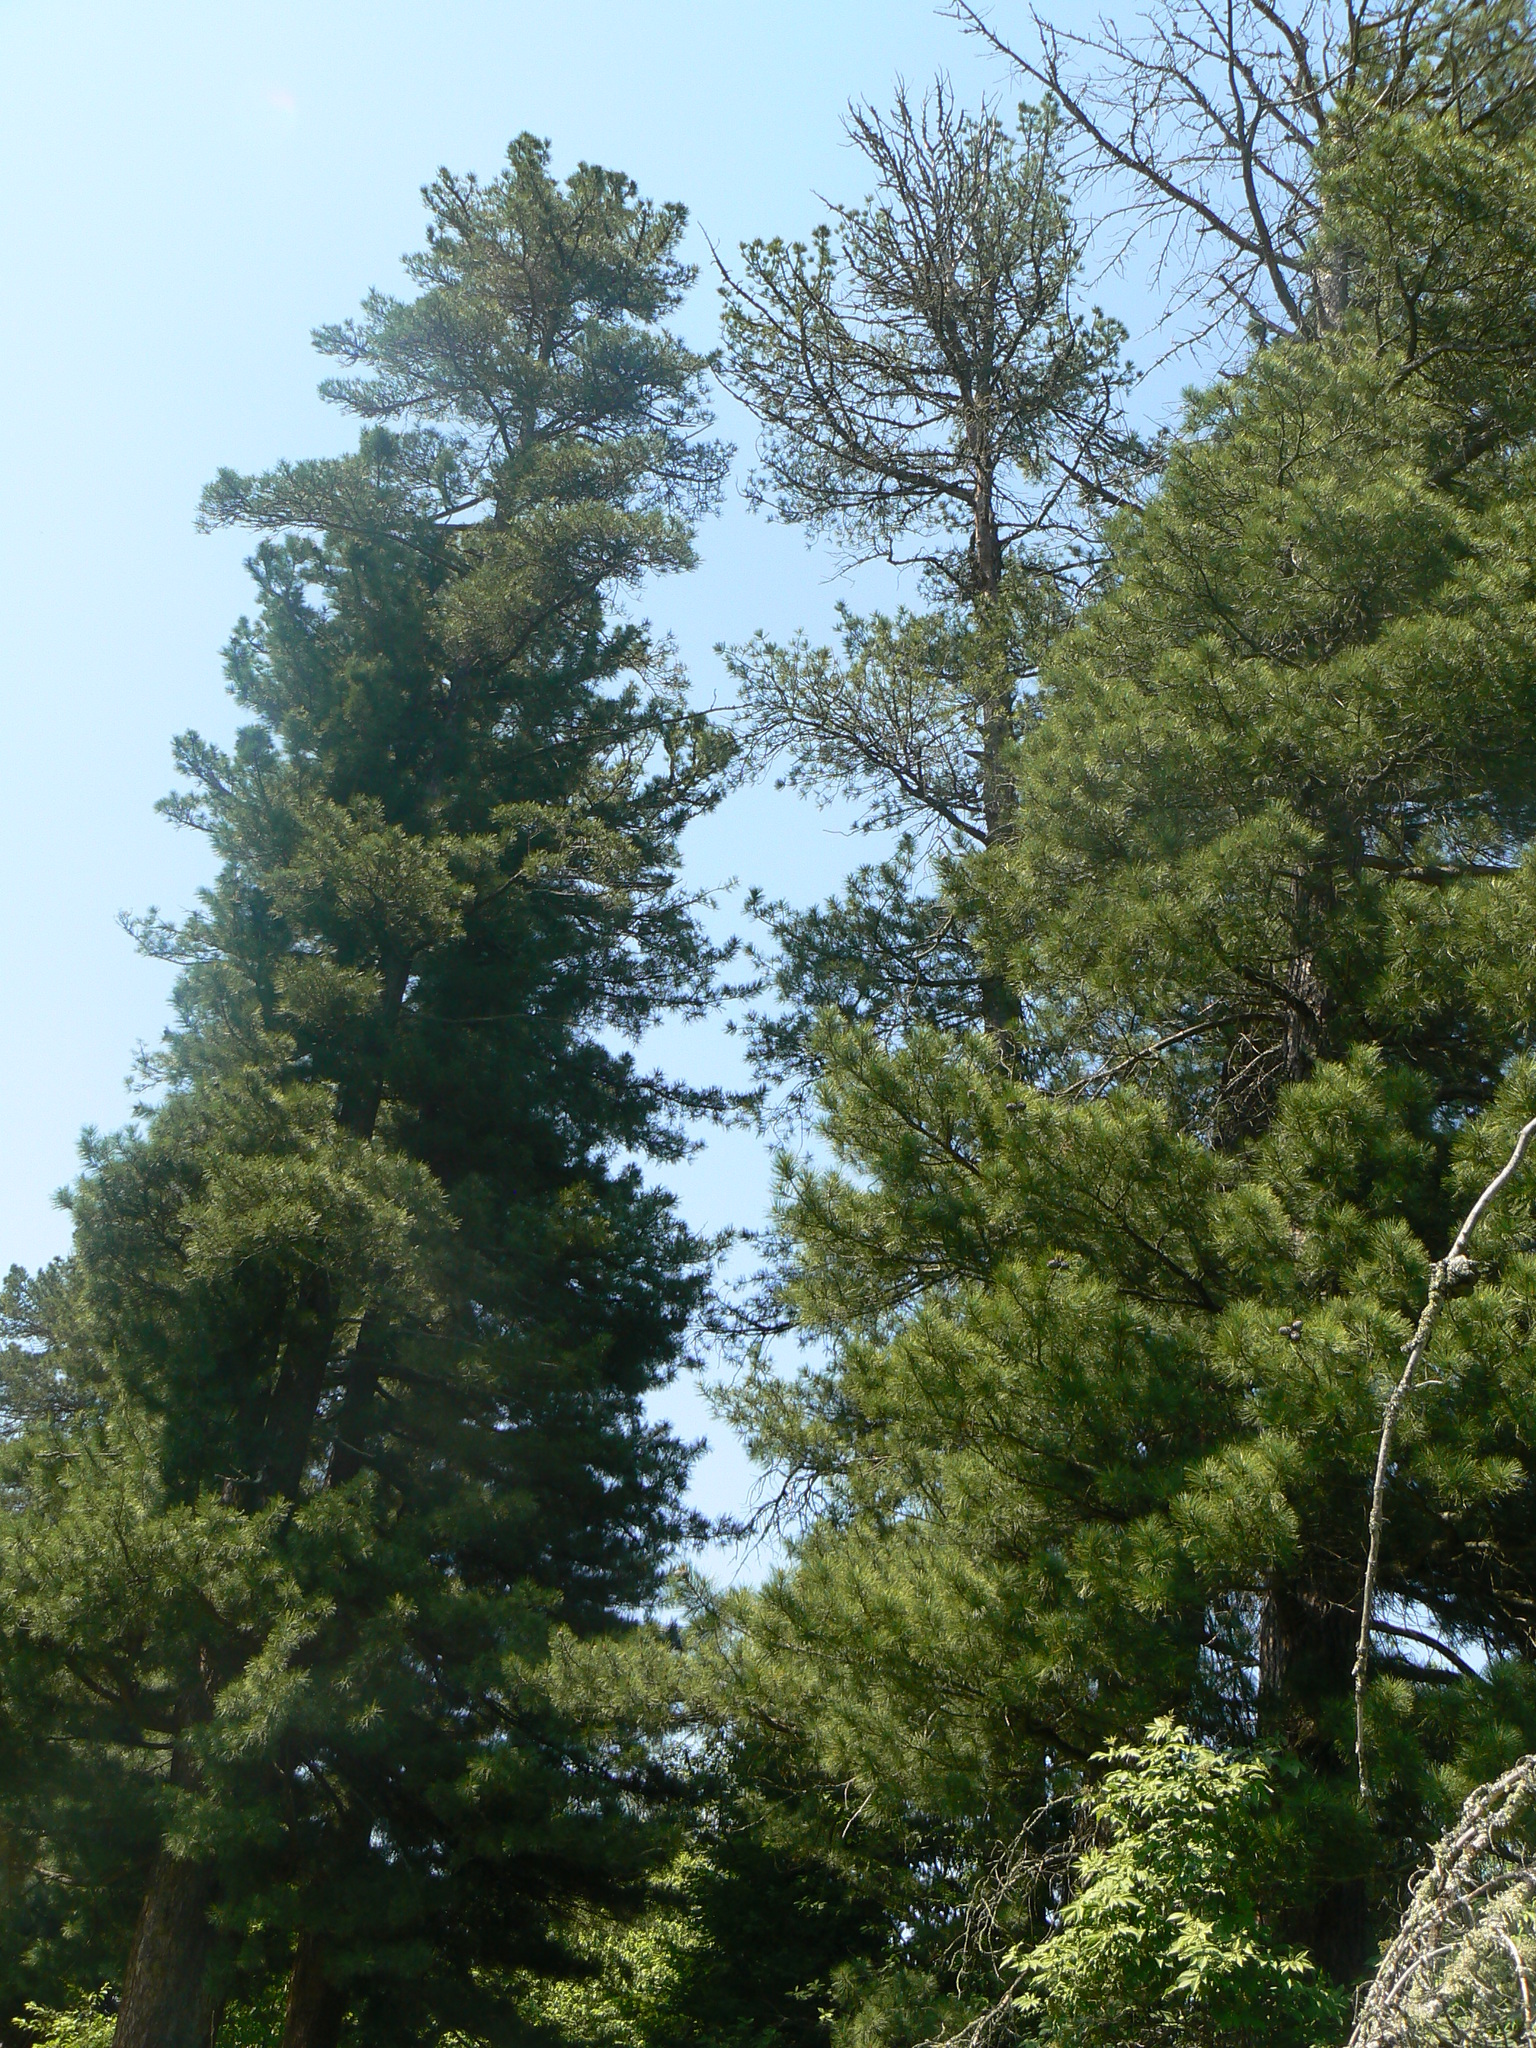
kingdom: Plantae
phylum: Tracheophyta
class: Pinopsida
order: Pinales
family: Pinaceae
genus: Pinus
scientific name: Pinus sibirica
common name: Siberian pine
